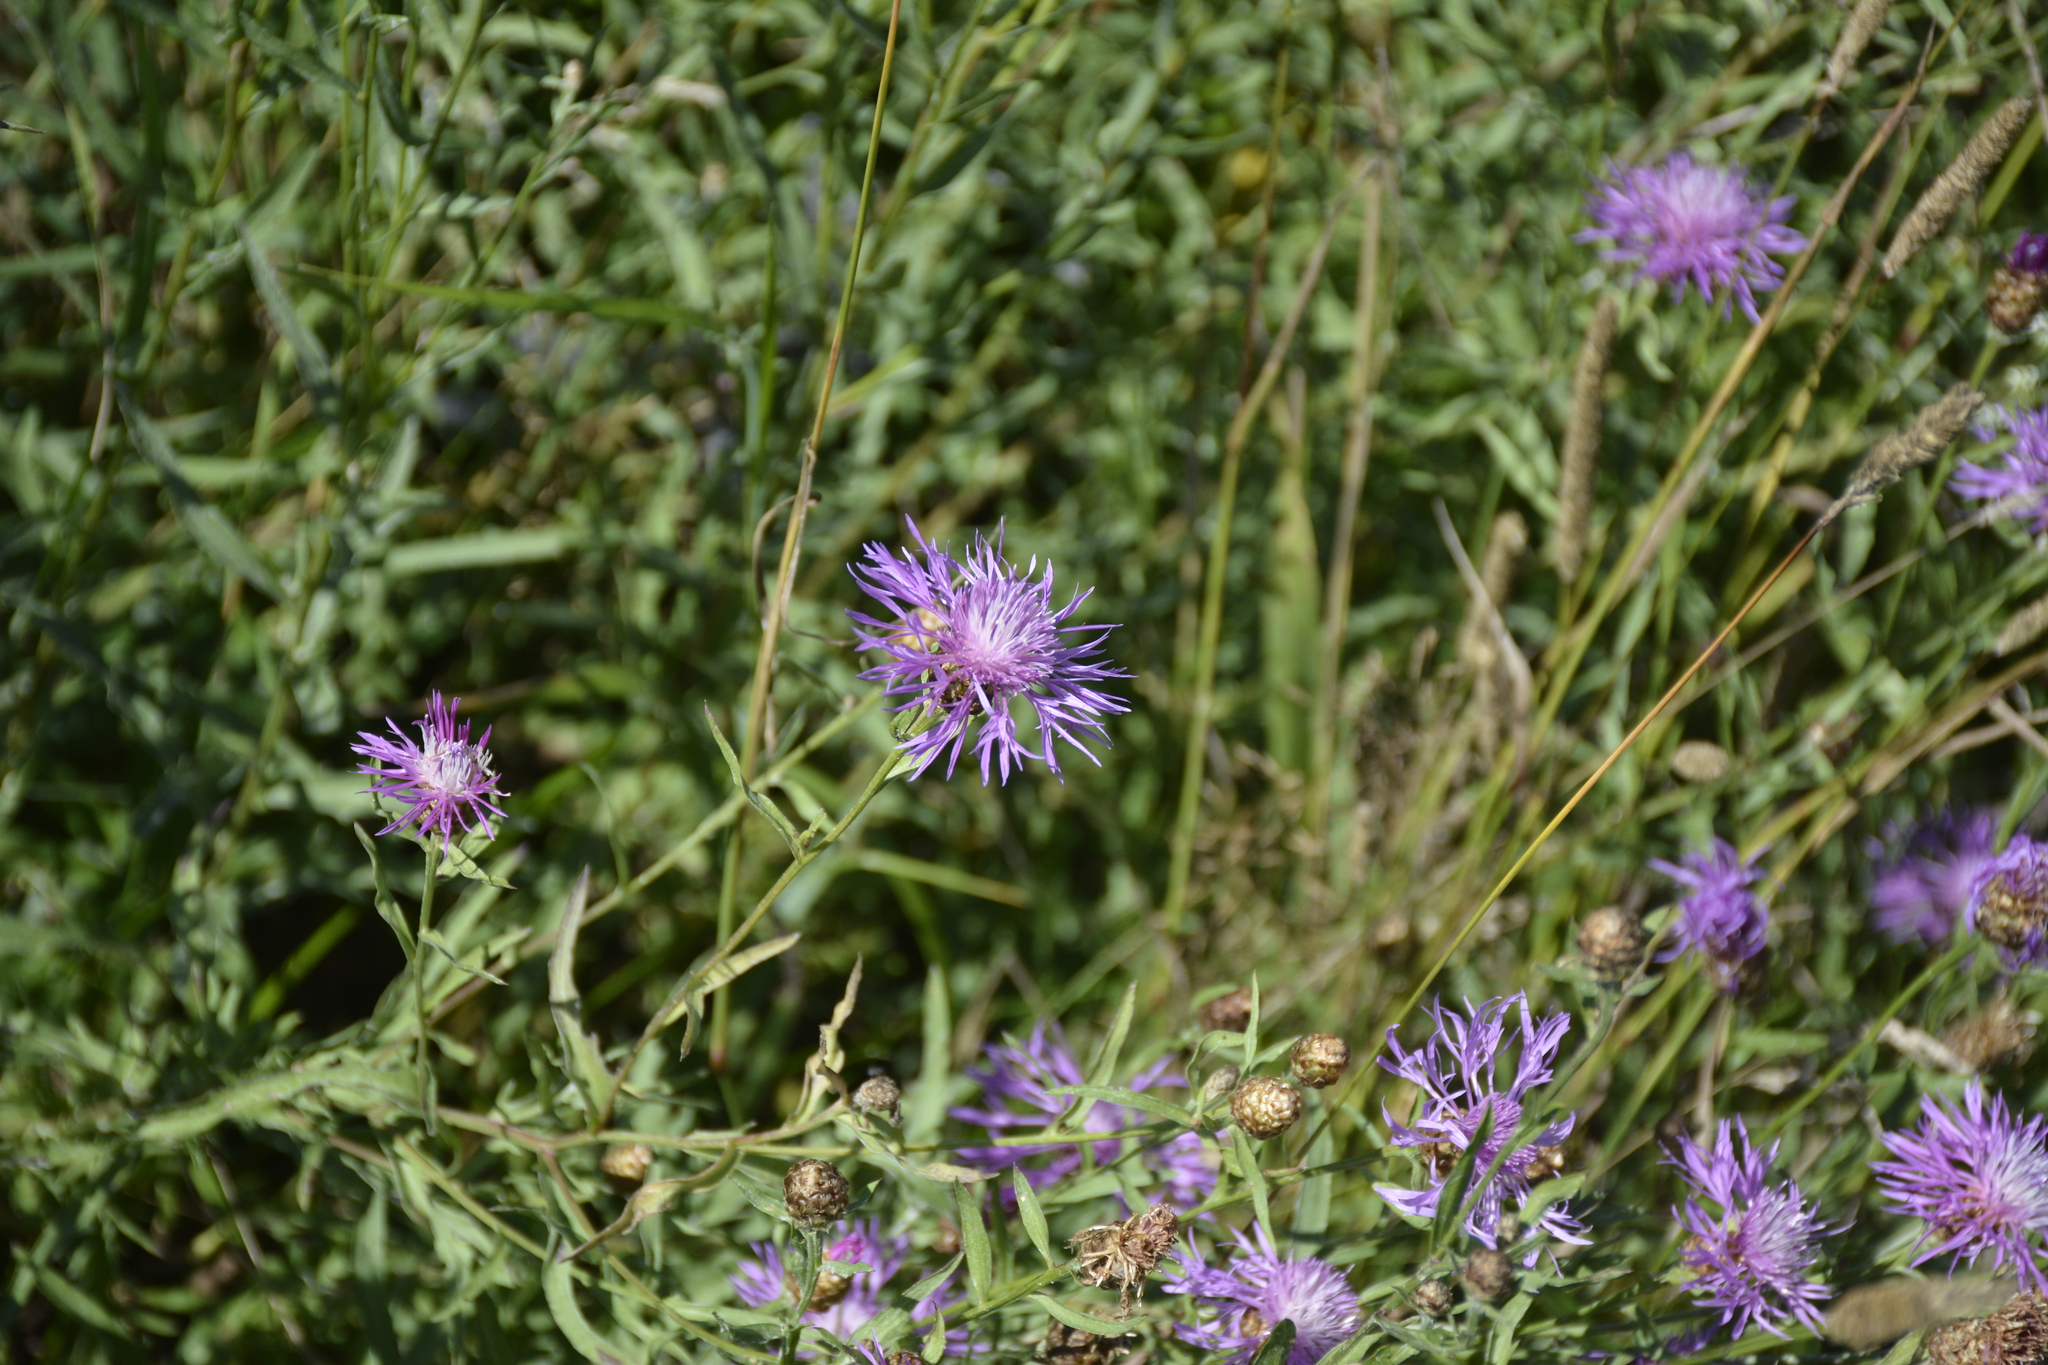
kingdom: Plantae
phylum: Tracheophyta
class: Magnoliopsida
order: Asterales
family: Asteraceae
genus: Centaurea
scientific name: Centaurea jacea
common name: Brown knapweed
